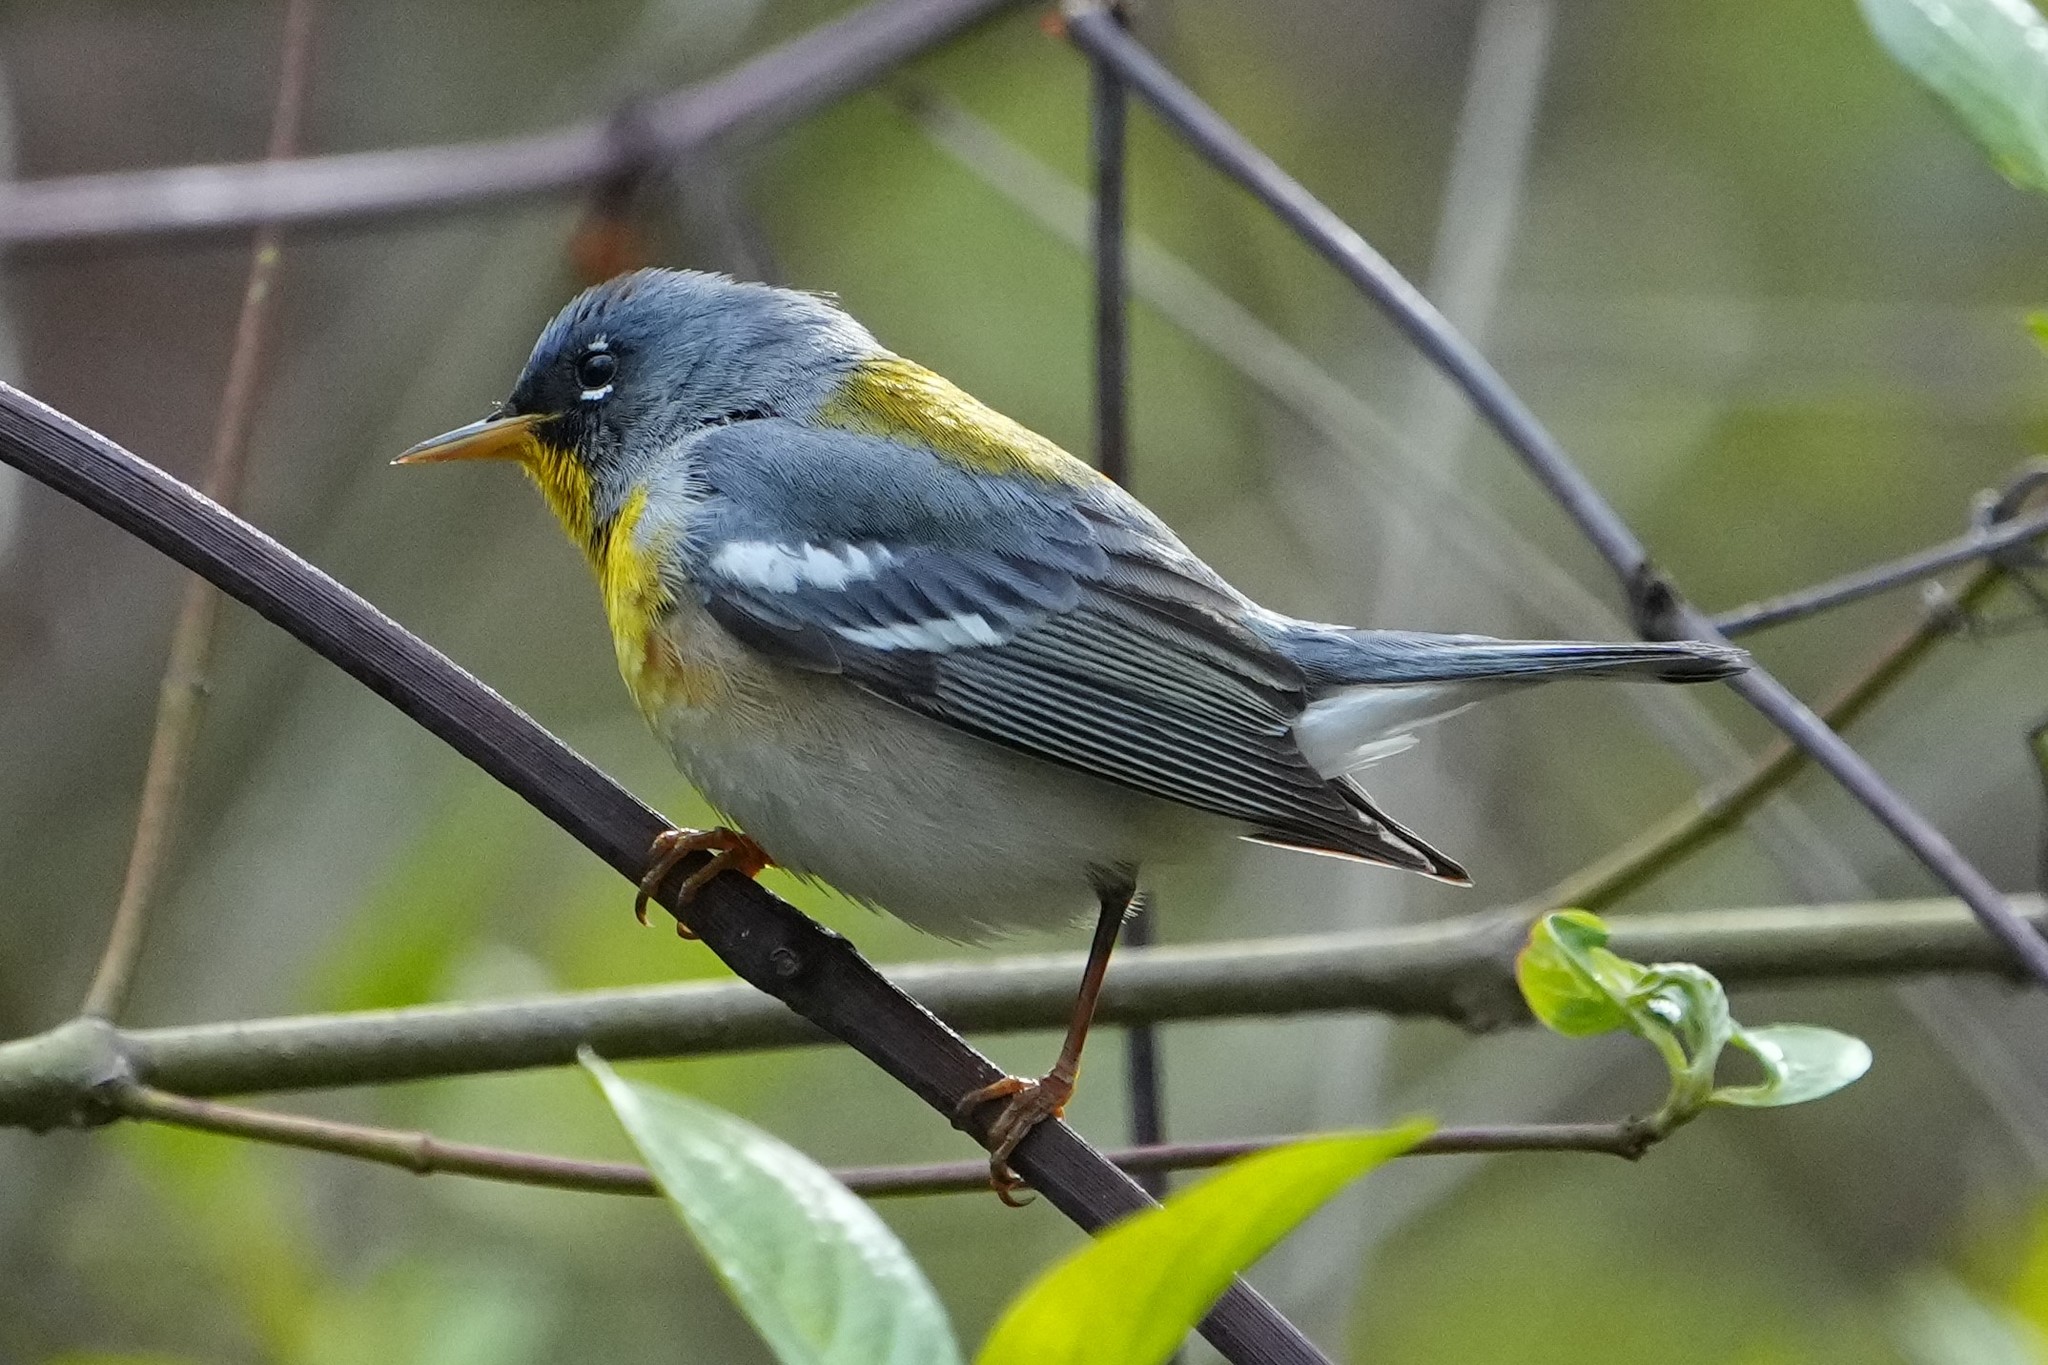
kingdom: Animalia
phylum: Chordata
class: Aves
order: Passeriformes
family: Parulidae
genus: Setophaga
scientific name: Setophaga americana
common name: Northern parula
